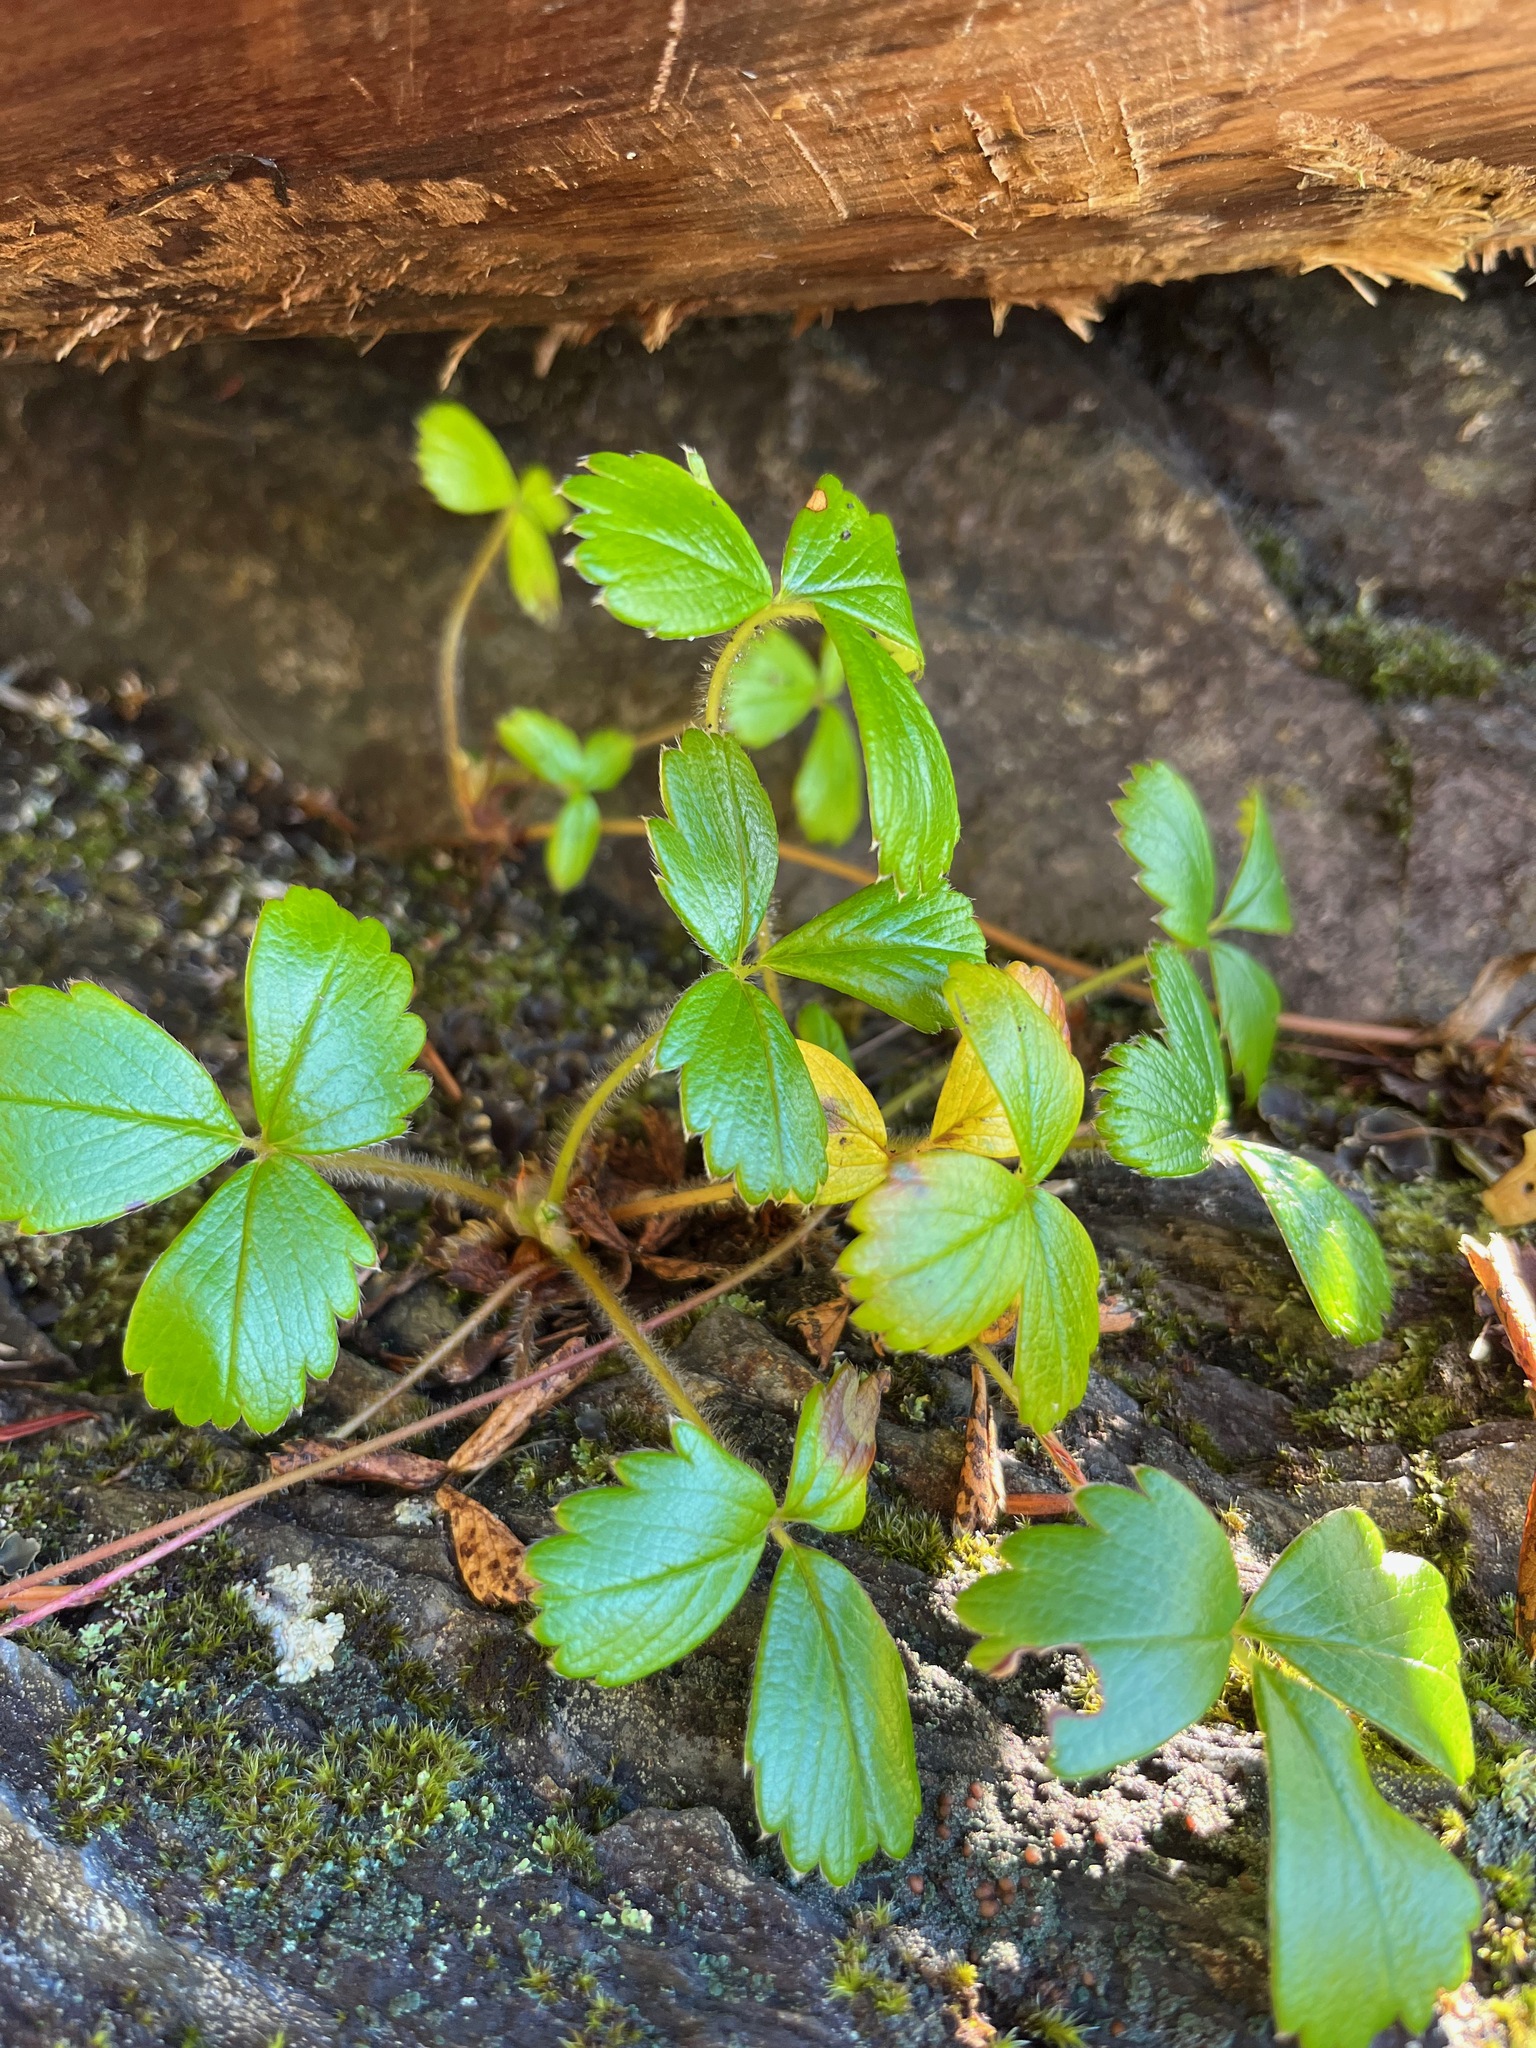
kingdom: Plantae
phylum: Tracheophyta
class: Magnoliopsida
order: Rosales
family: Rosaceae
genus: Fragaria
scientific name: Fragaria chiloensis
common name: Beach strawberry
